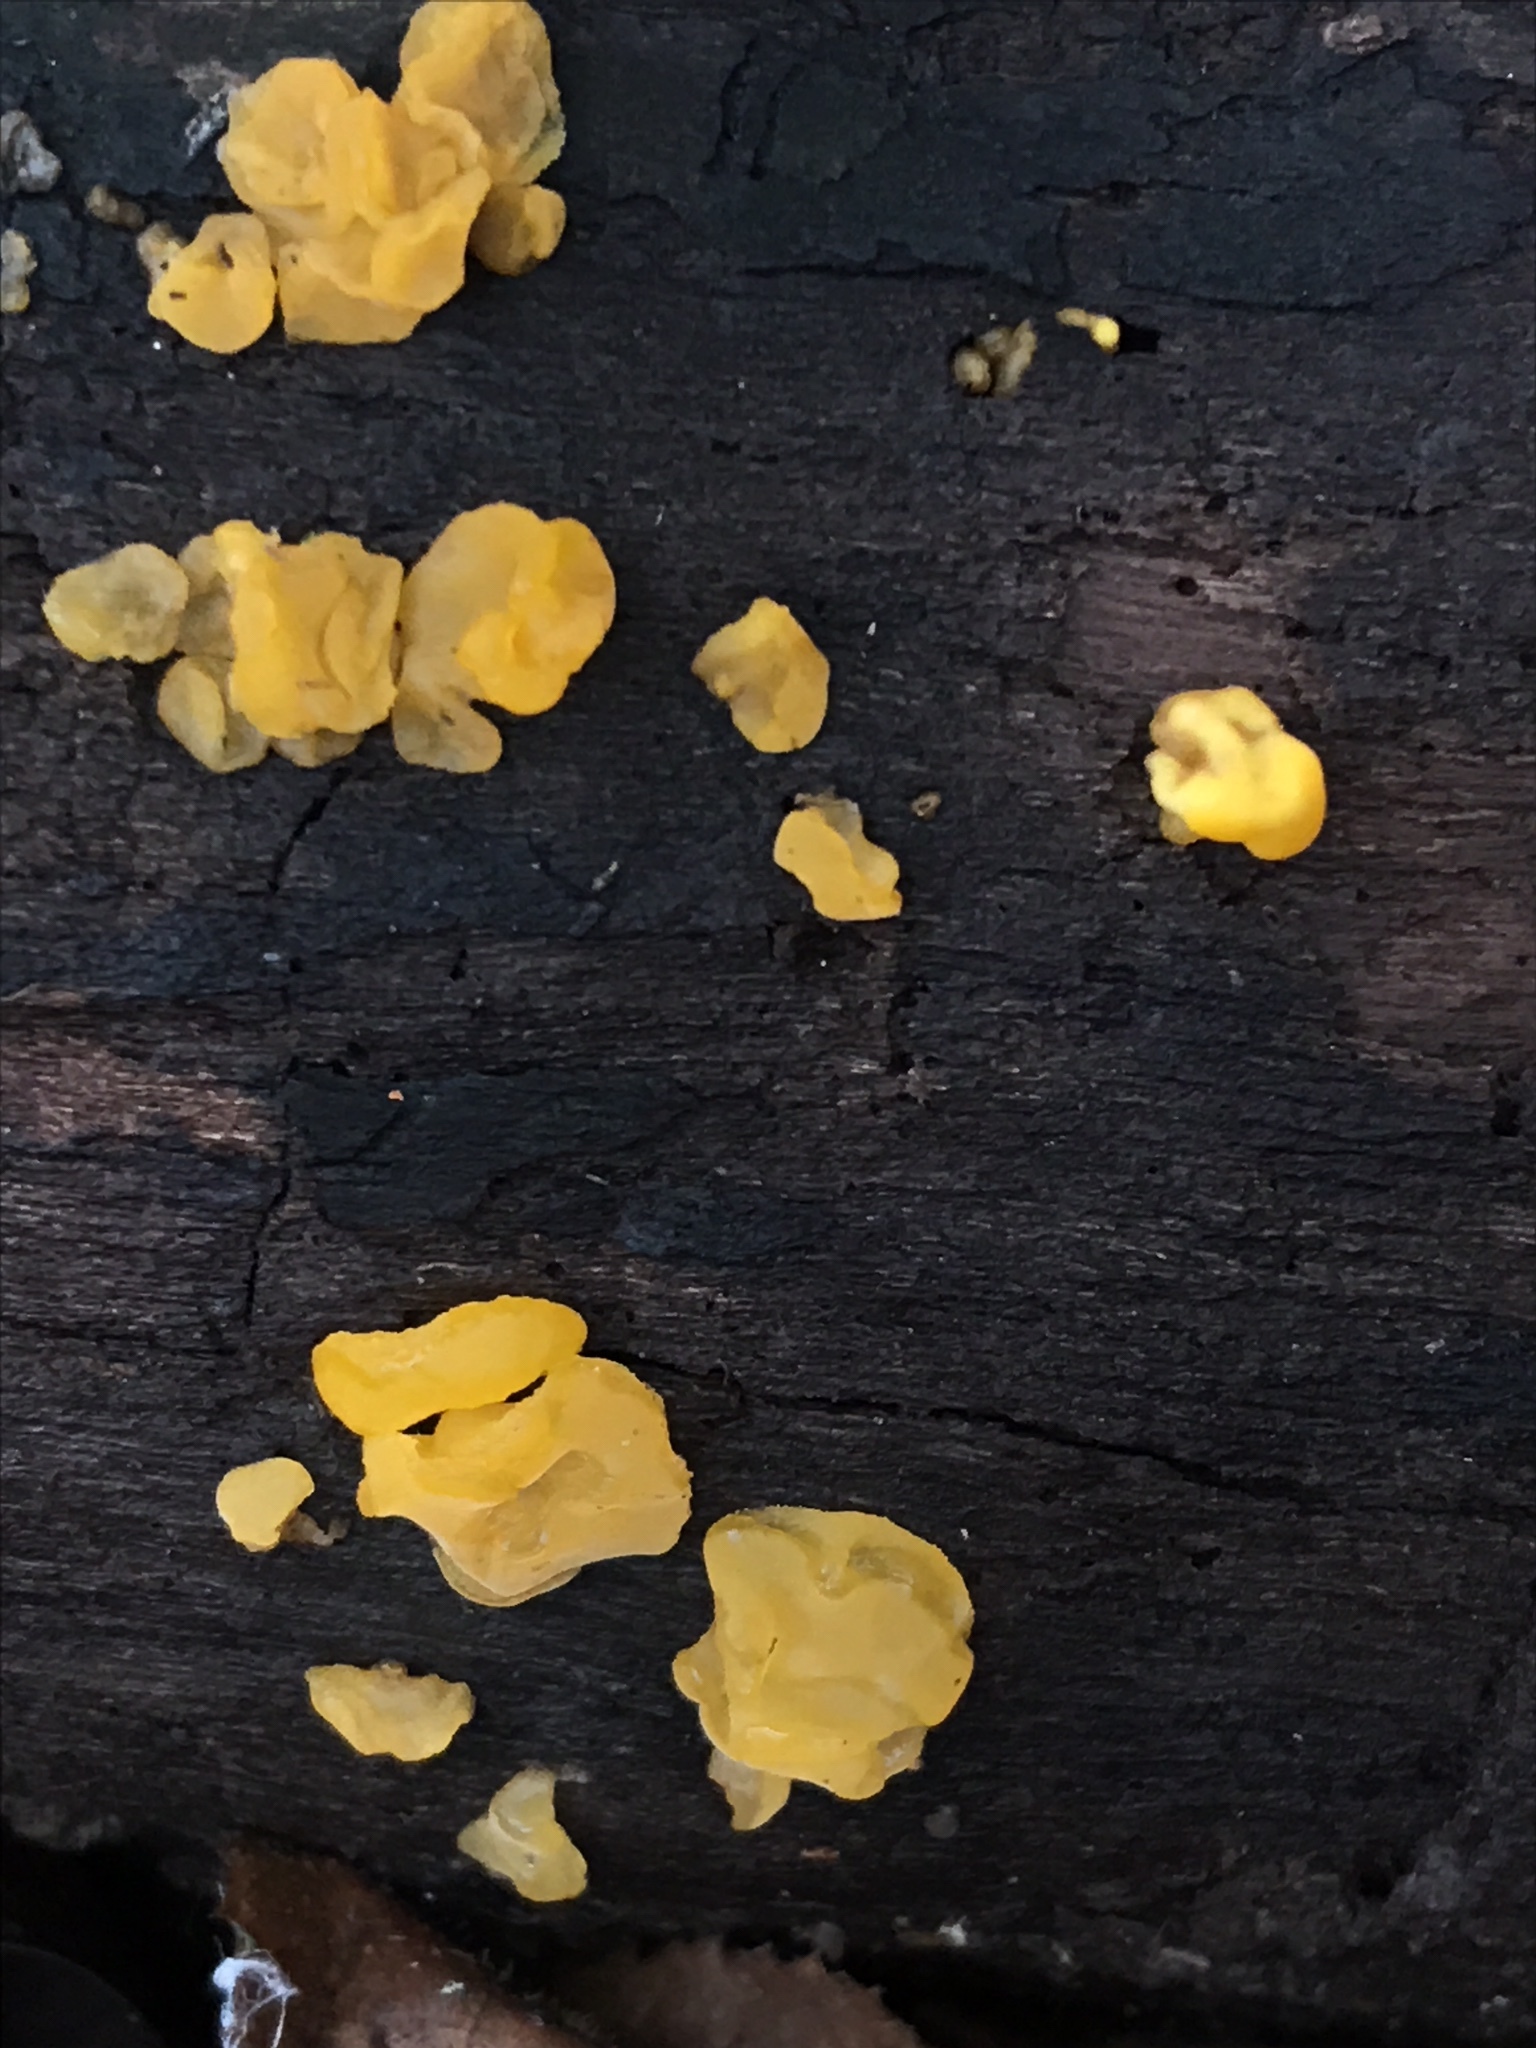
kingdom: Fungi
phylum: Basidiomycota
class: Tremellomycetes
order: Tremellales
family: Tremellaceae
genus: Tremella
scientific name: Tremella mesenterica
